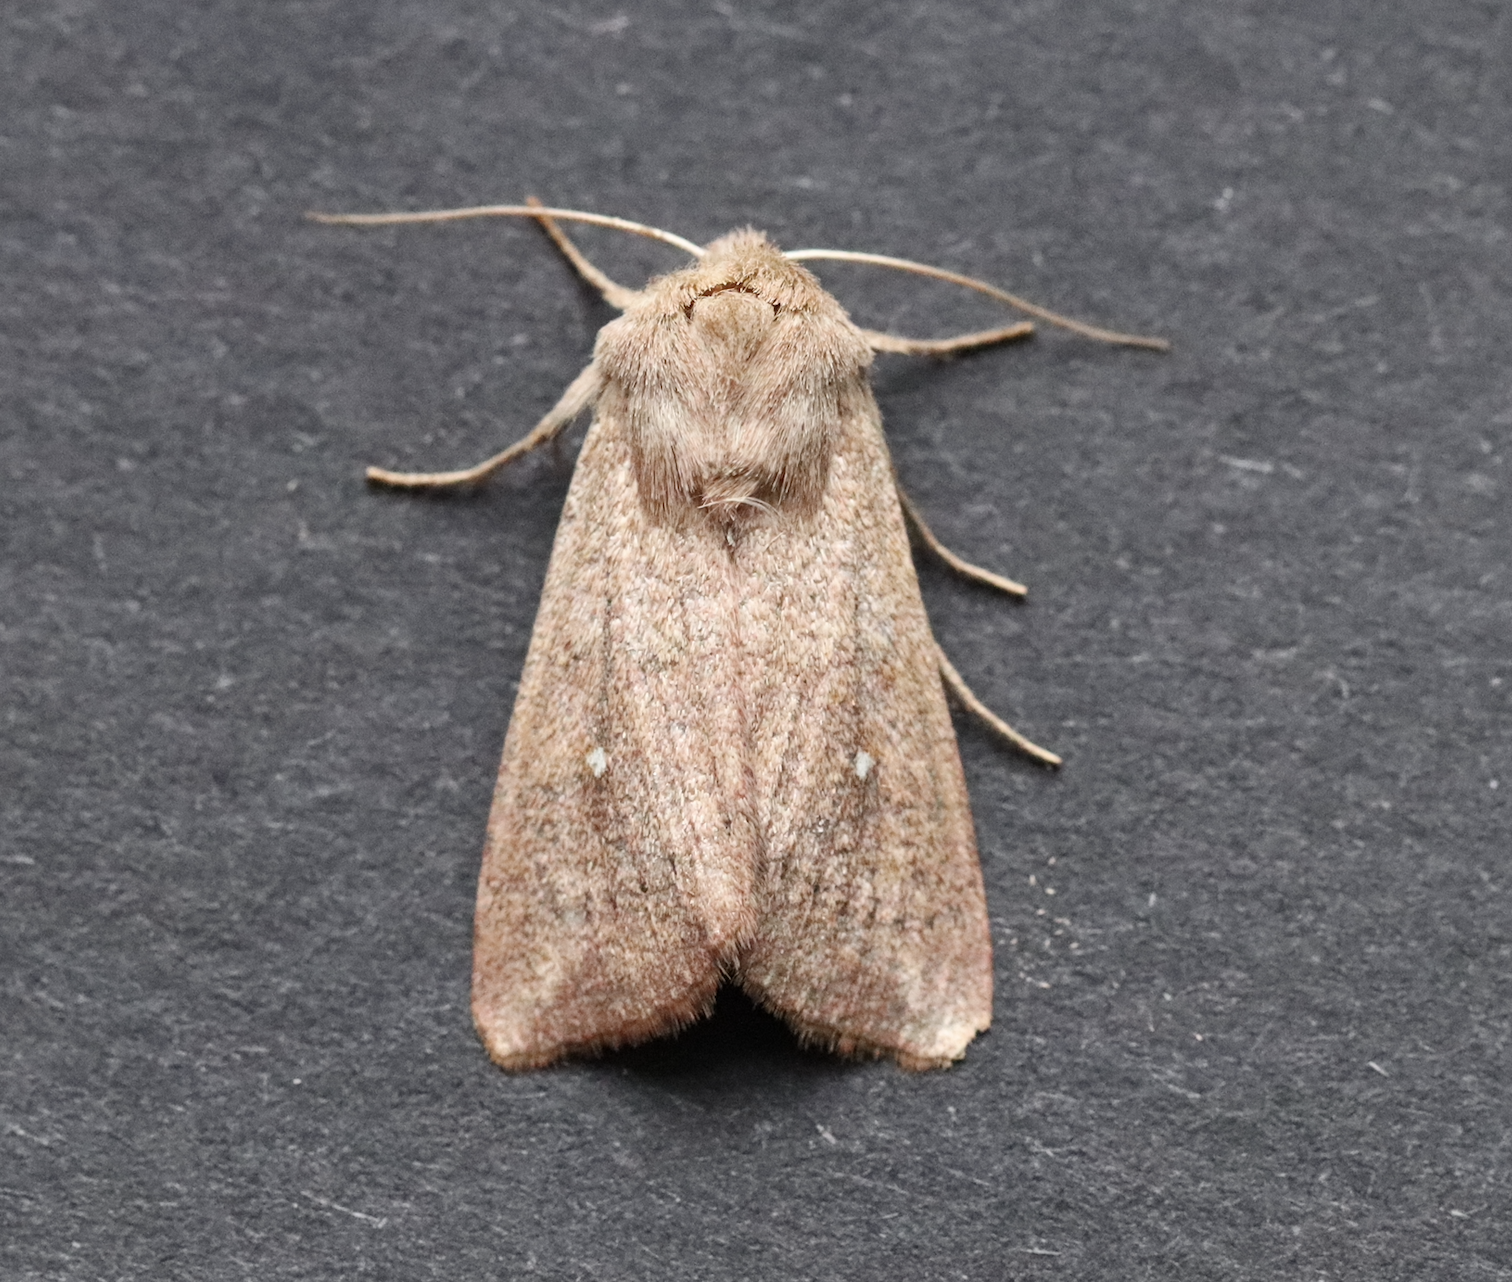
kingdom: Animalia
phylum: Arthropoda
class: Insecta
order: Lepidoptera
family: Noctuidae
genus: Mythimna
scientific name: Mythimna albipuncta
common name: White-point
